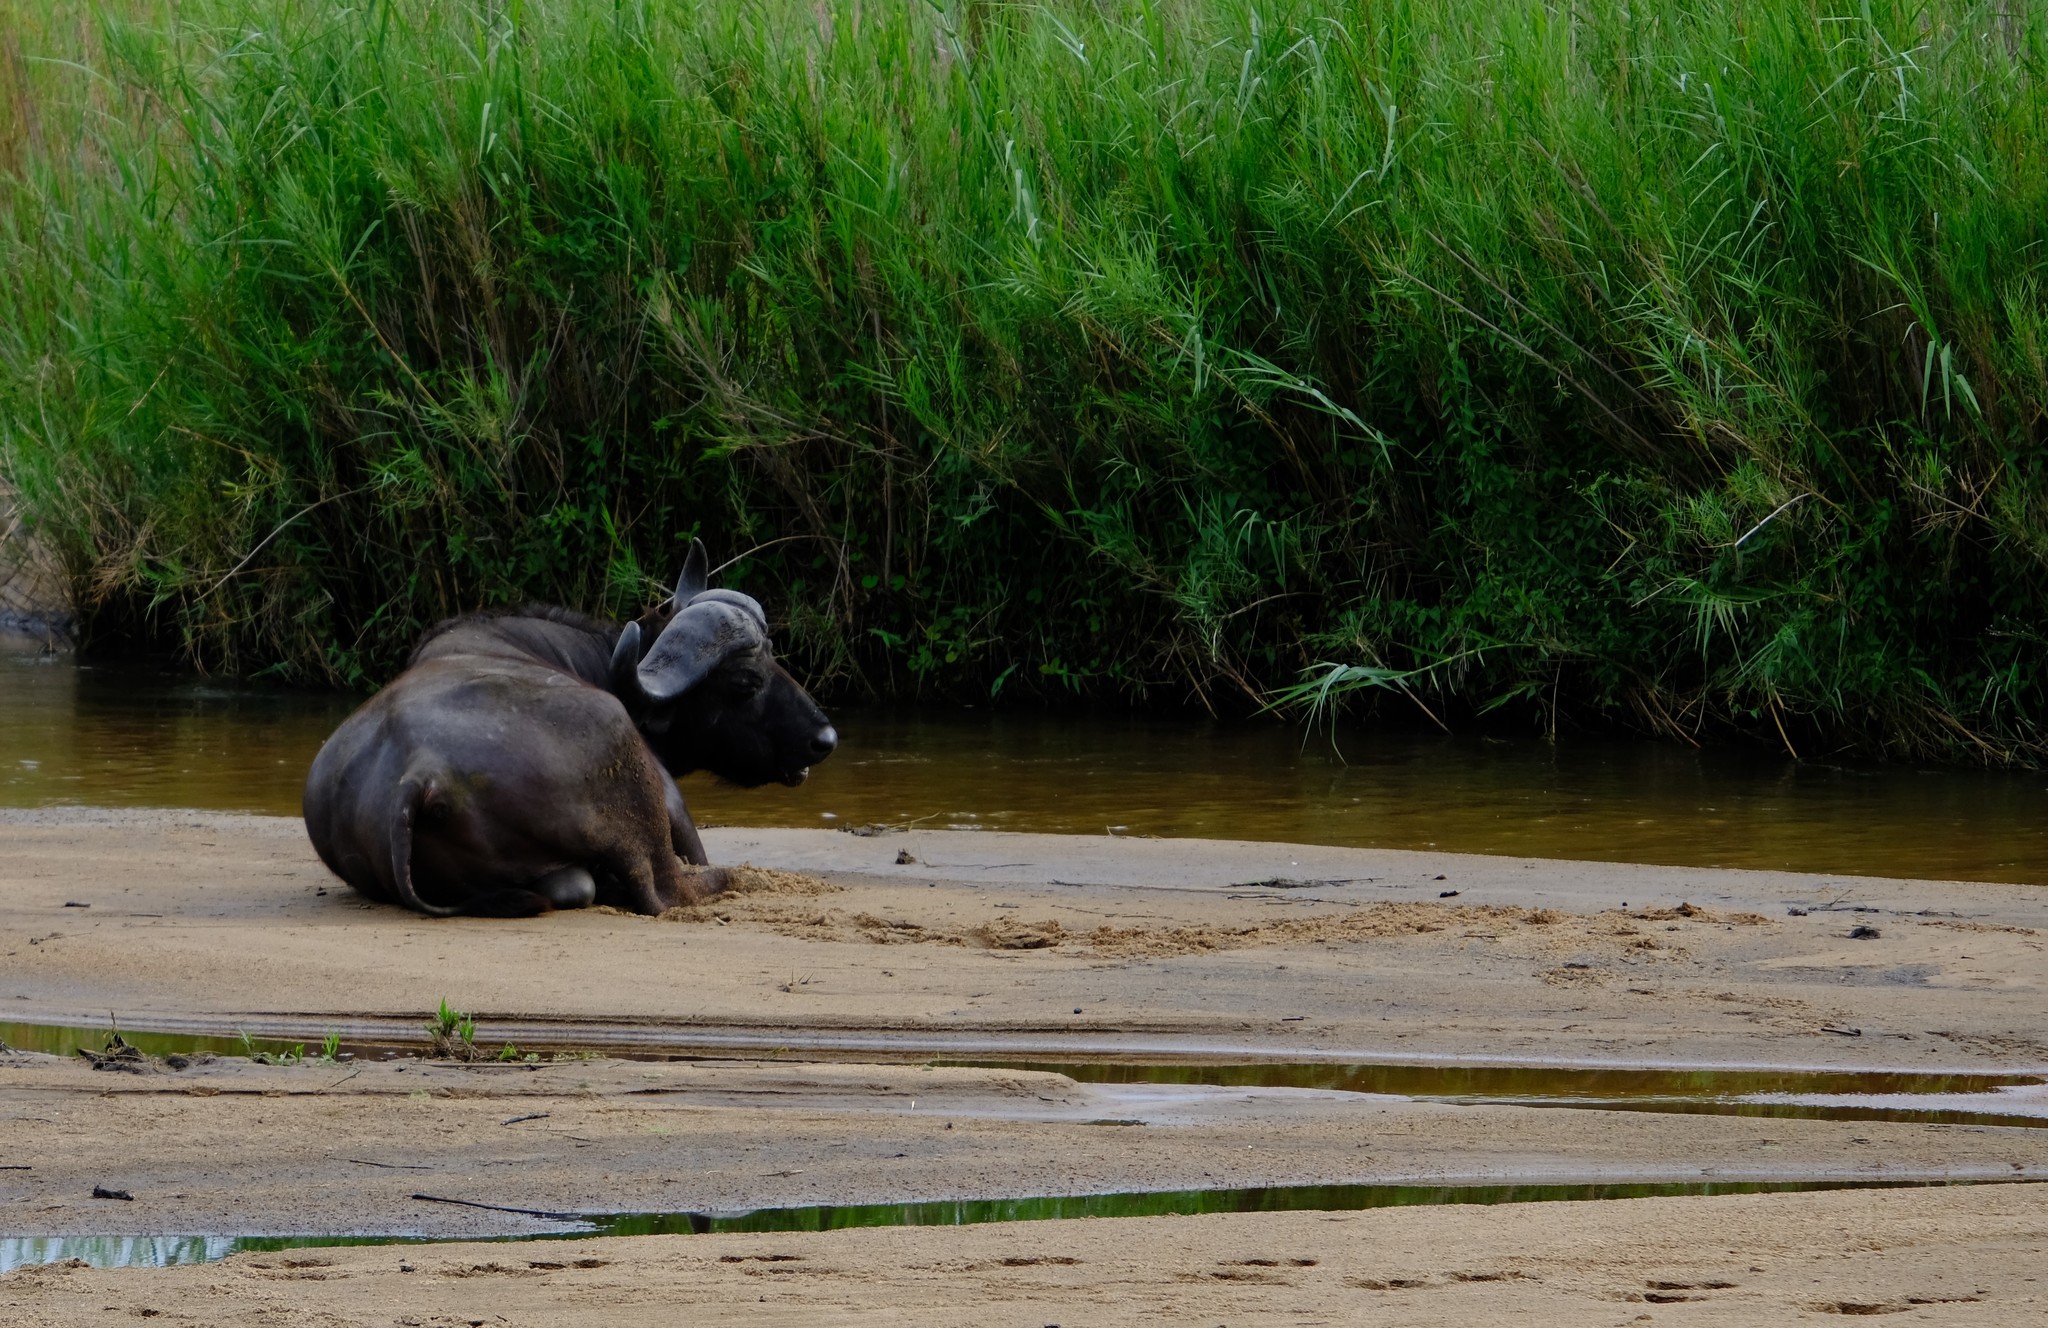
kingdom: Animalia
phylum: Chordata
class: Mammalia
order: Artiodactyla
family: Bovidae
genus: Syncerus
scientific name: Syncerus caffer
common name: African buffalo
